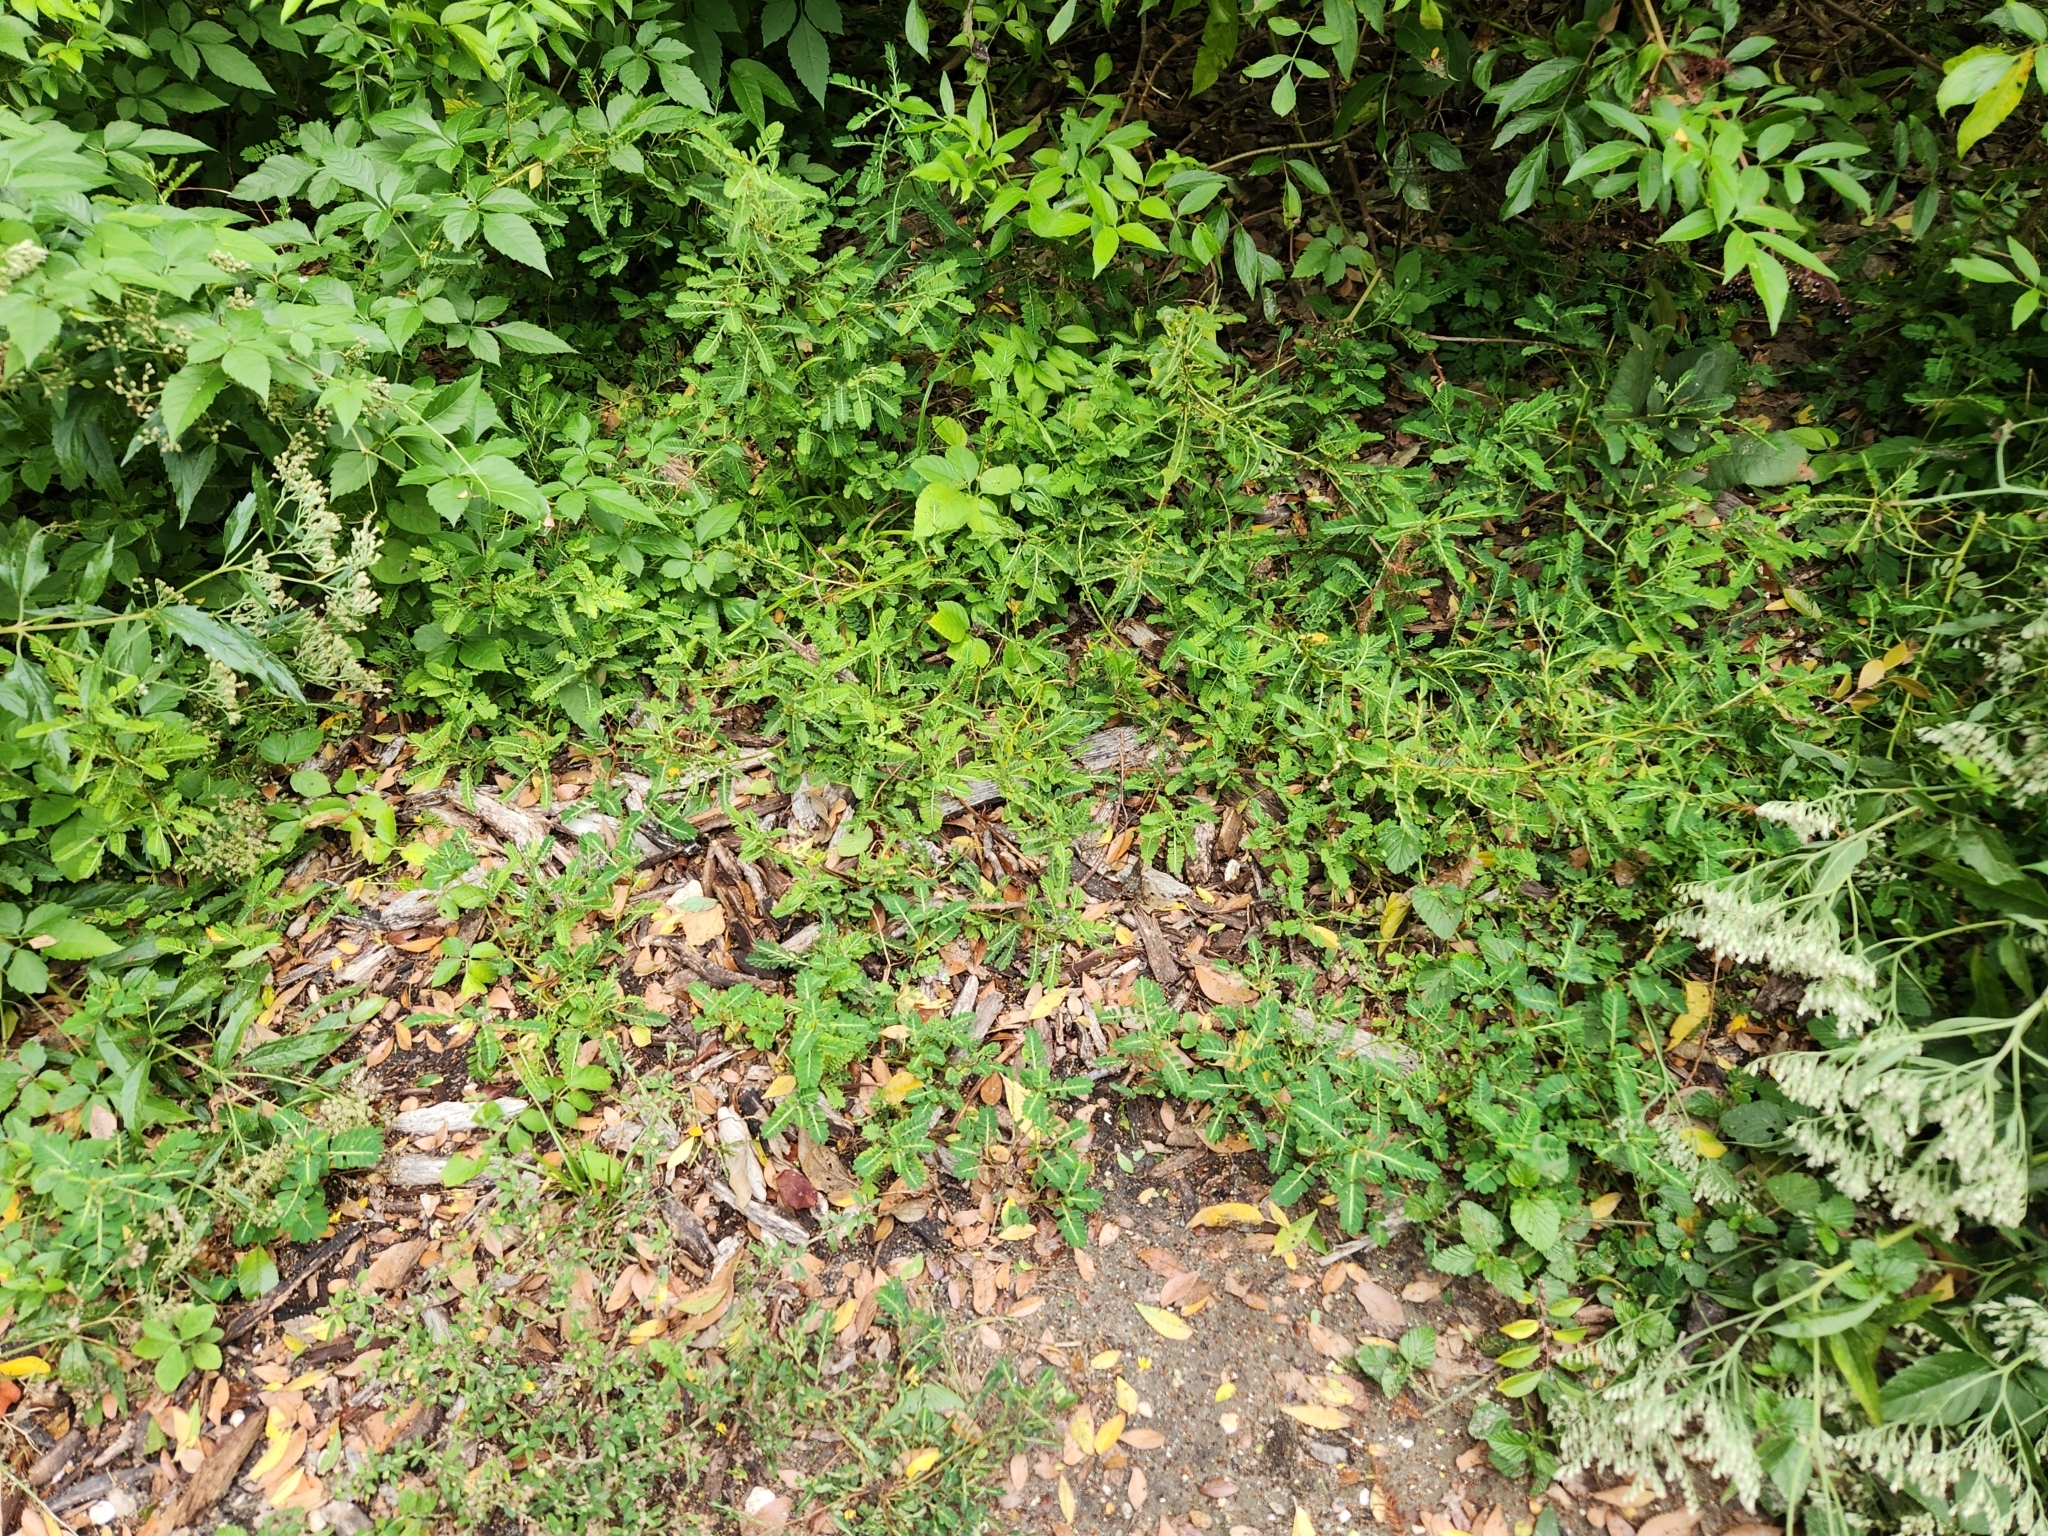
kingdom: Plantae
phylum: Tracheophyta
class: Magnoliopsida
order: Malpighiales
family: Phyllanthaceae
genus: Phyllanthus
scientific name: Phyllanthus urinaria
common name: Chamber bitter
